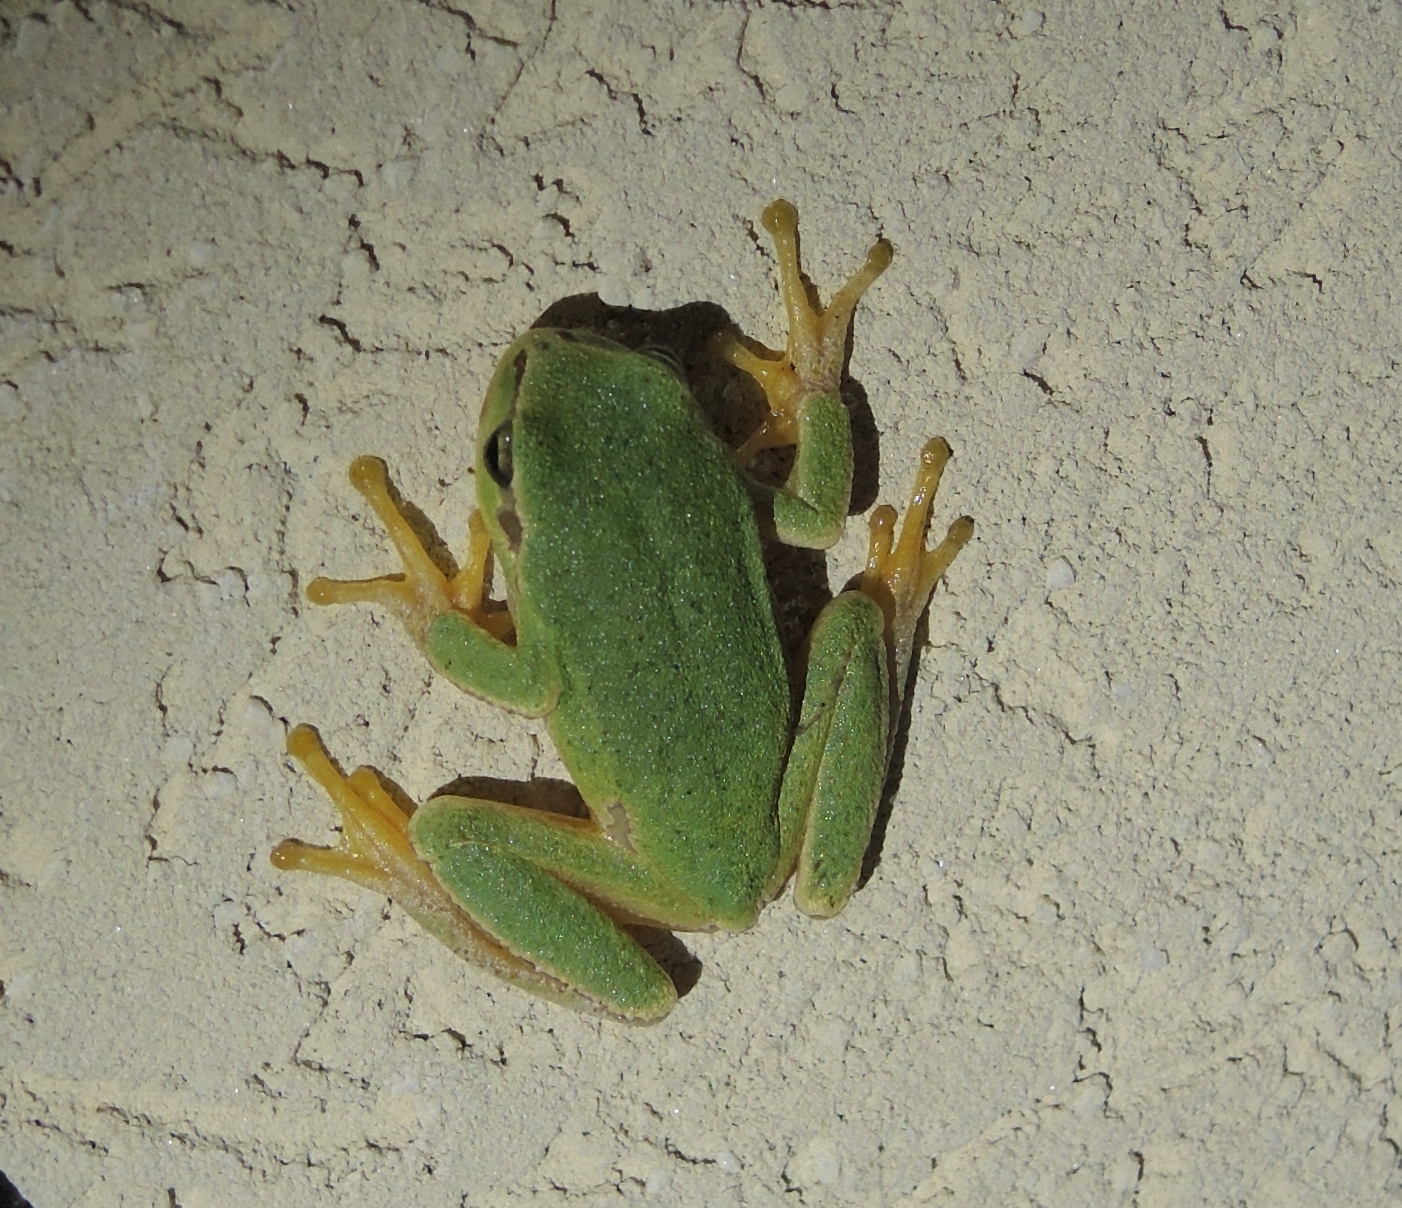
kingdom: Animalia
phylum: Chordata
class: Amphibia
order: Anura
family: Hylidae
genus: Hyla
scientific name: Hyla orientalis
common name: Caucasian treefrog
